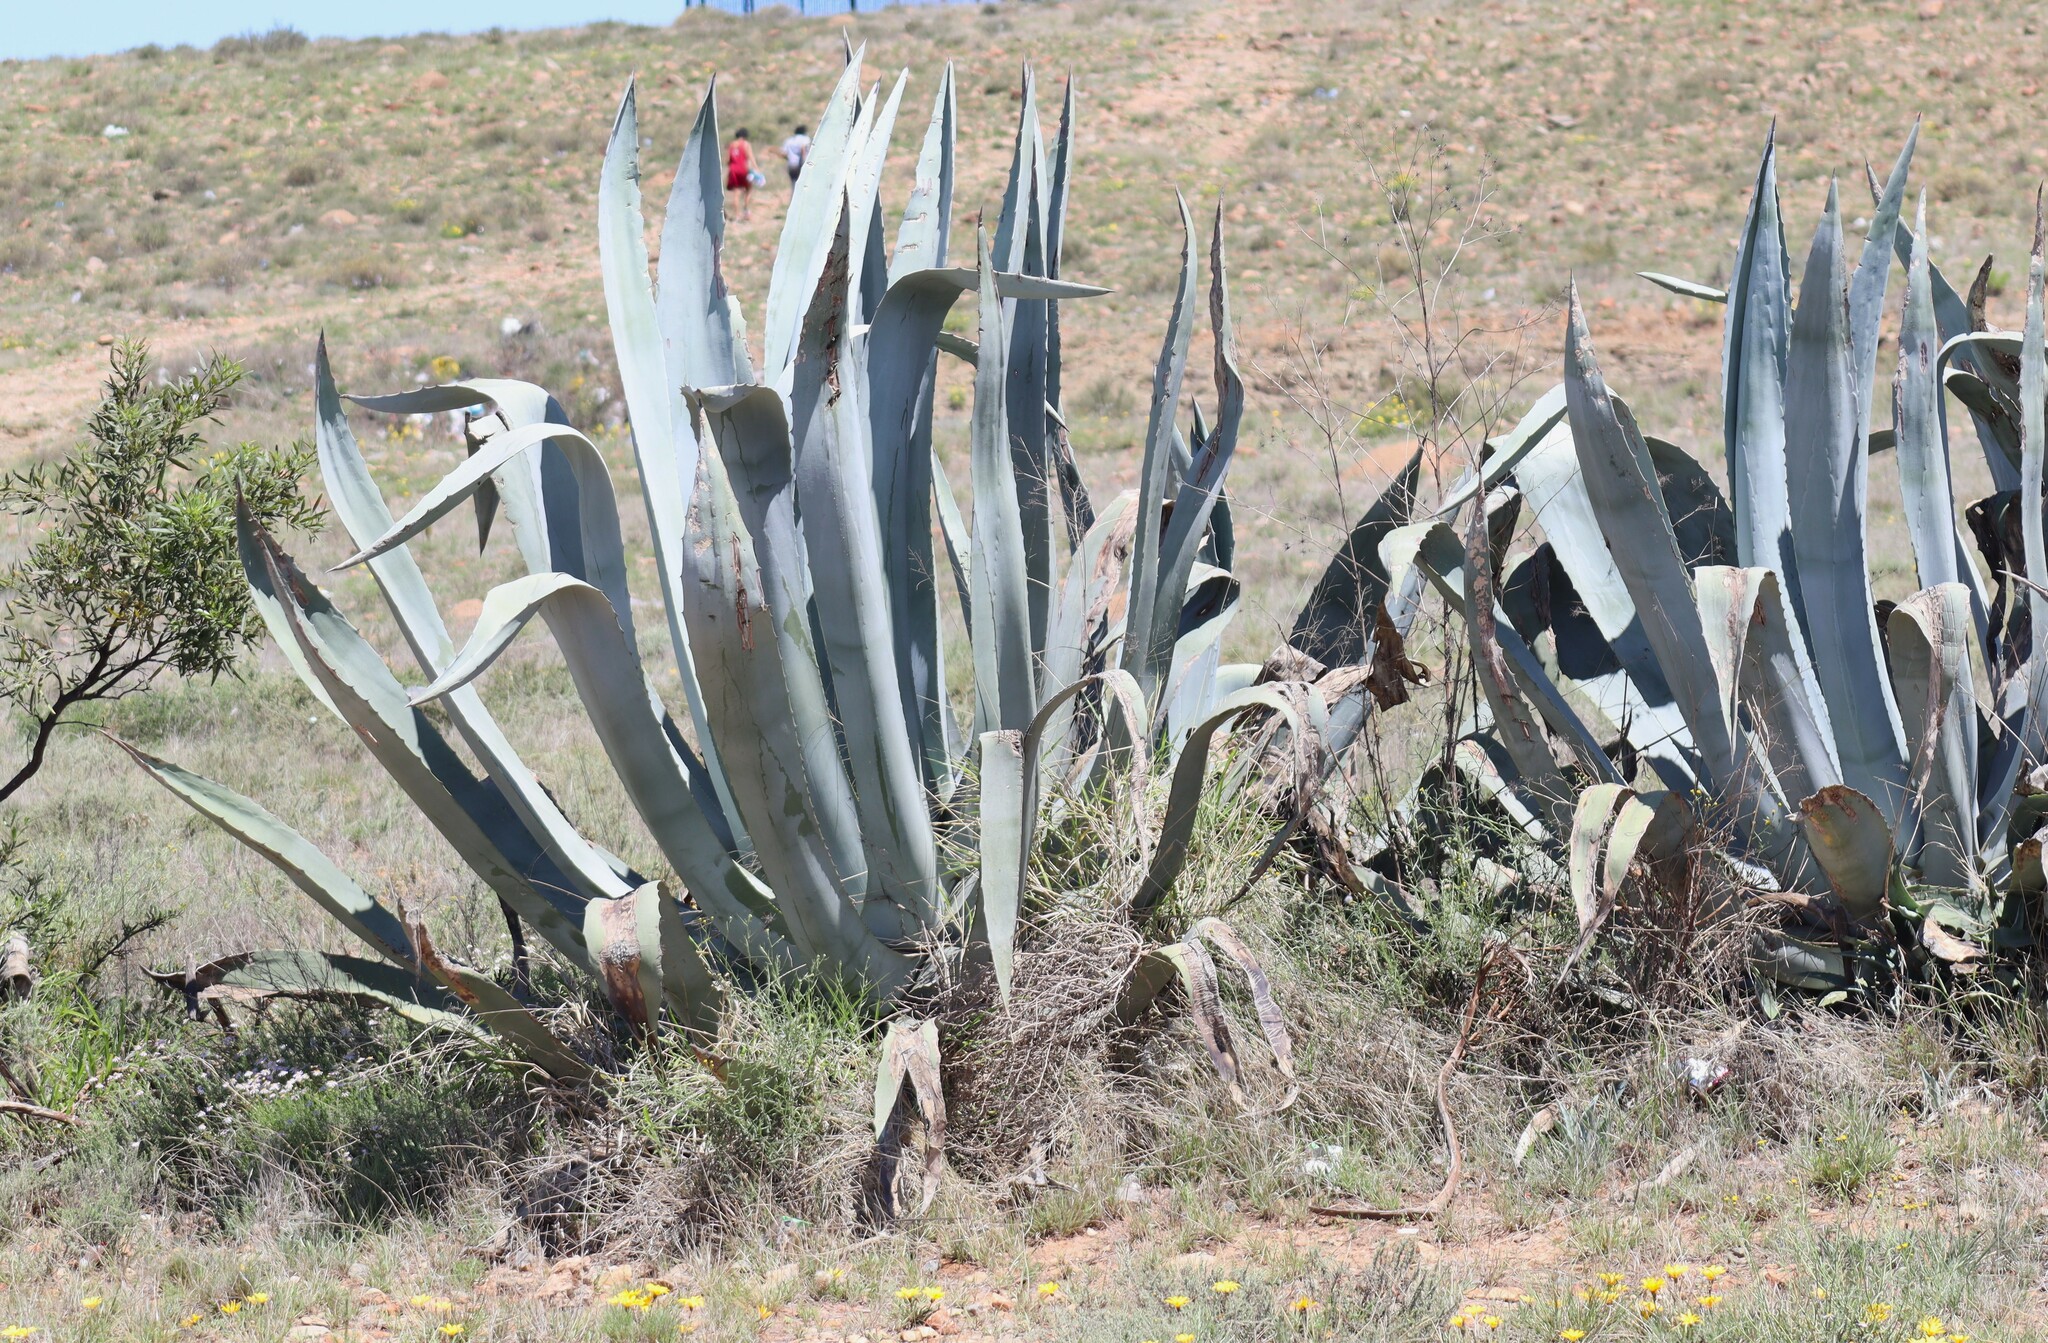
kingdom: Plantae
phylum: Tracheophyta
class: Liliopsida
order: Asparagales
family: Asparagaceae
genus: Agave
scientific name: Agave americana
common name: Centuryplant
